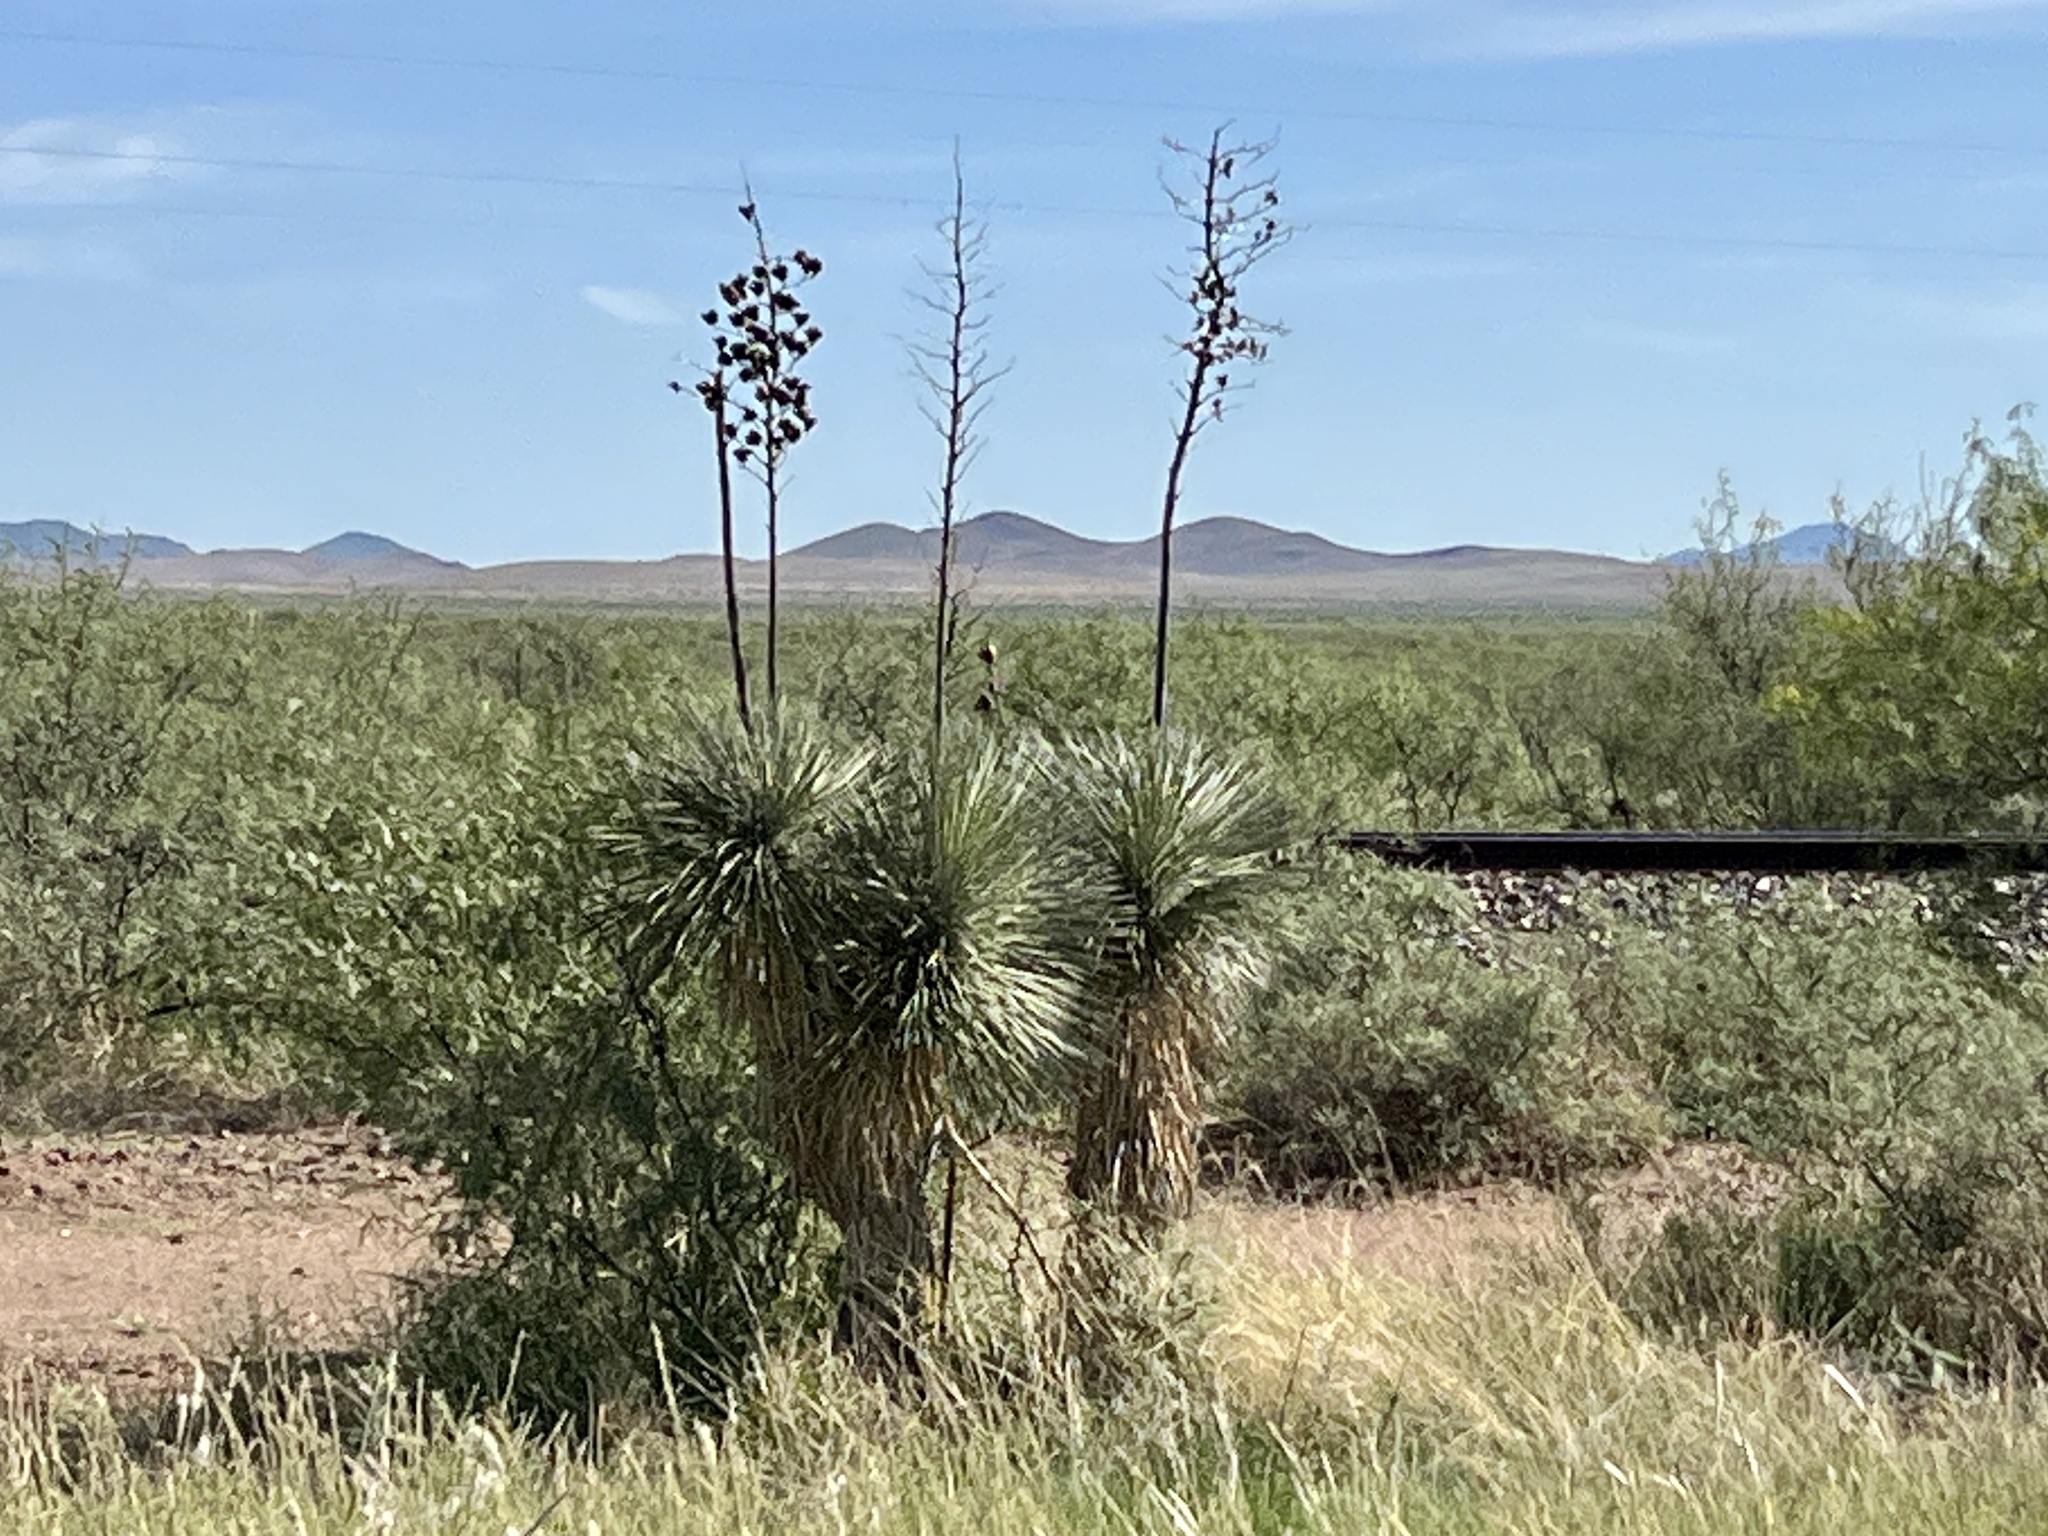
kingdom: Plantae
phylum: Tracheophyta
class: Liliopsida
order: Asparagales
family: Asparagaceae
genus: Yucca
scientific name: Yucca elata
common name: Palmella
